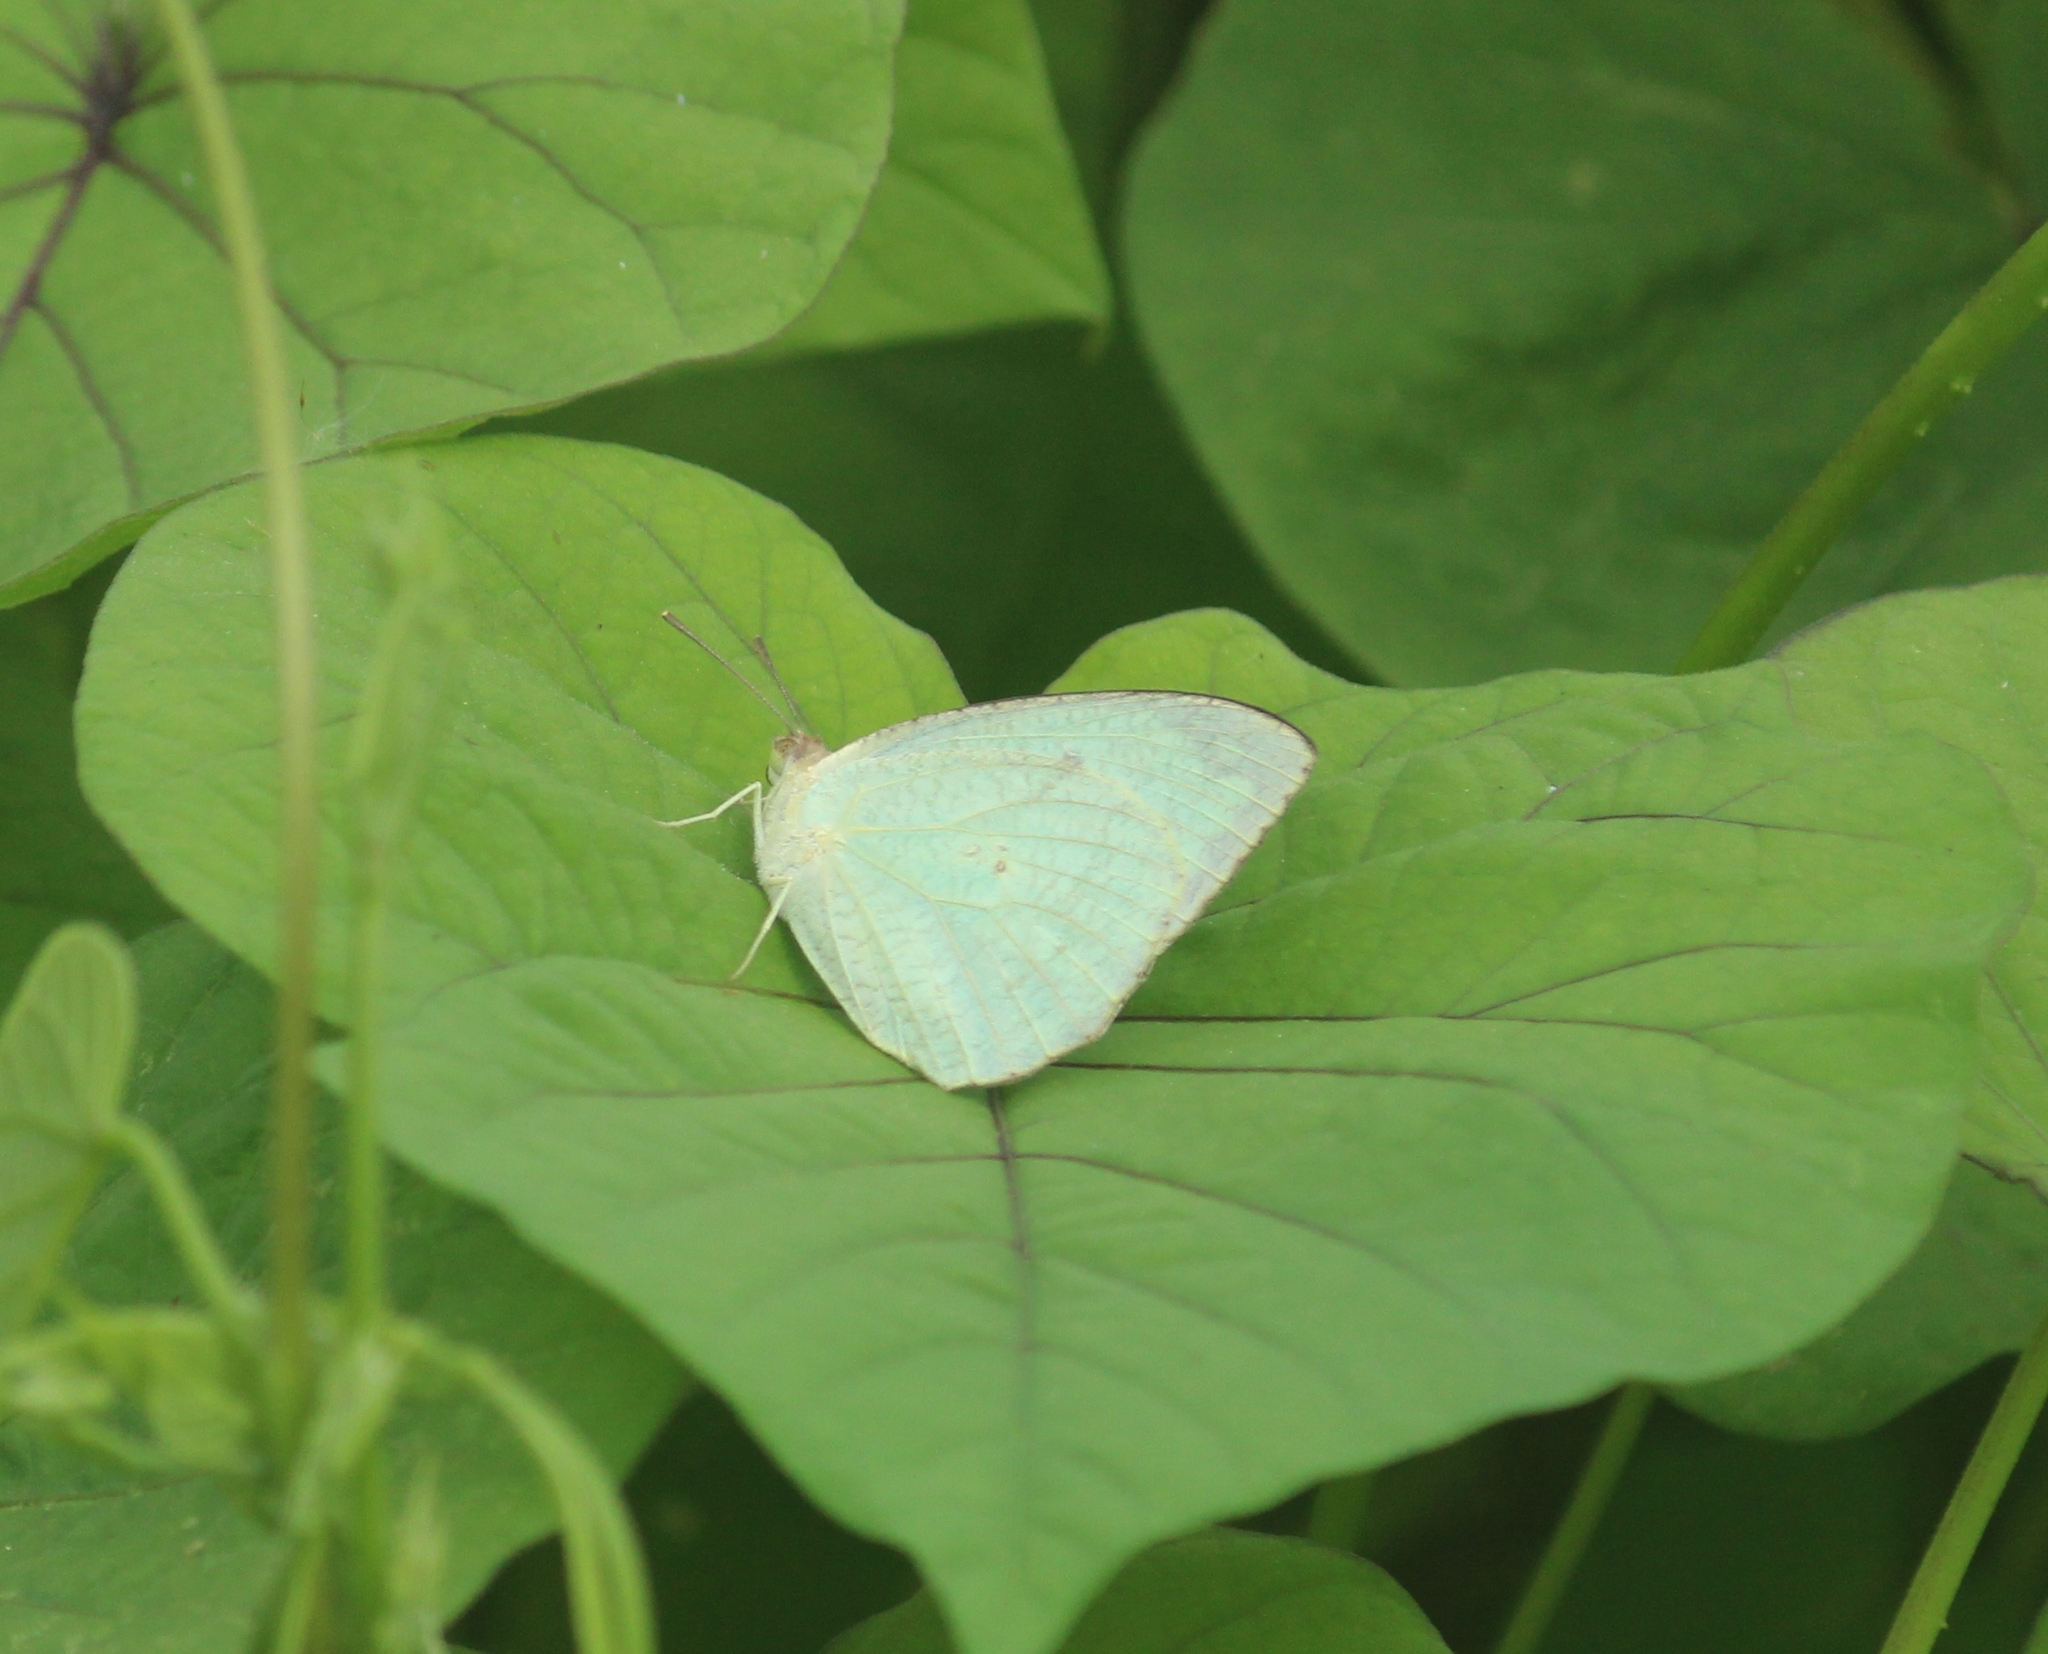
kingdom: Animalia
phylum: Arthropoda
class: Insecta
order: Lepidoptera
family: Pieridae
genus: Catopsilia
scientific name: Catopsilia pyranthe
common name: Mottled emigrant
